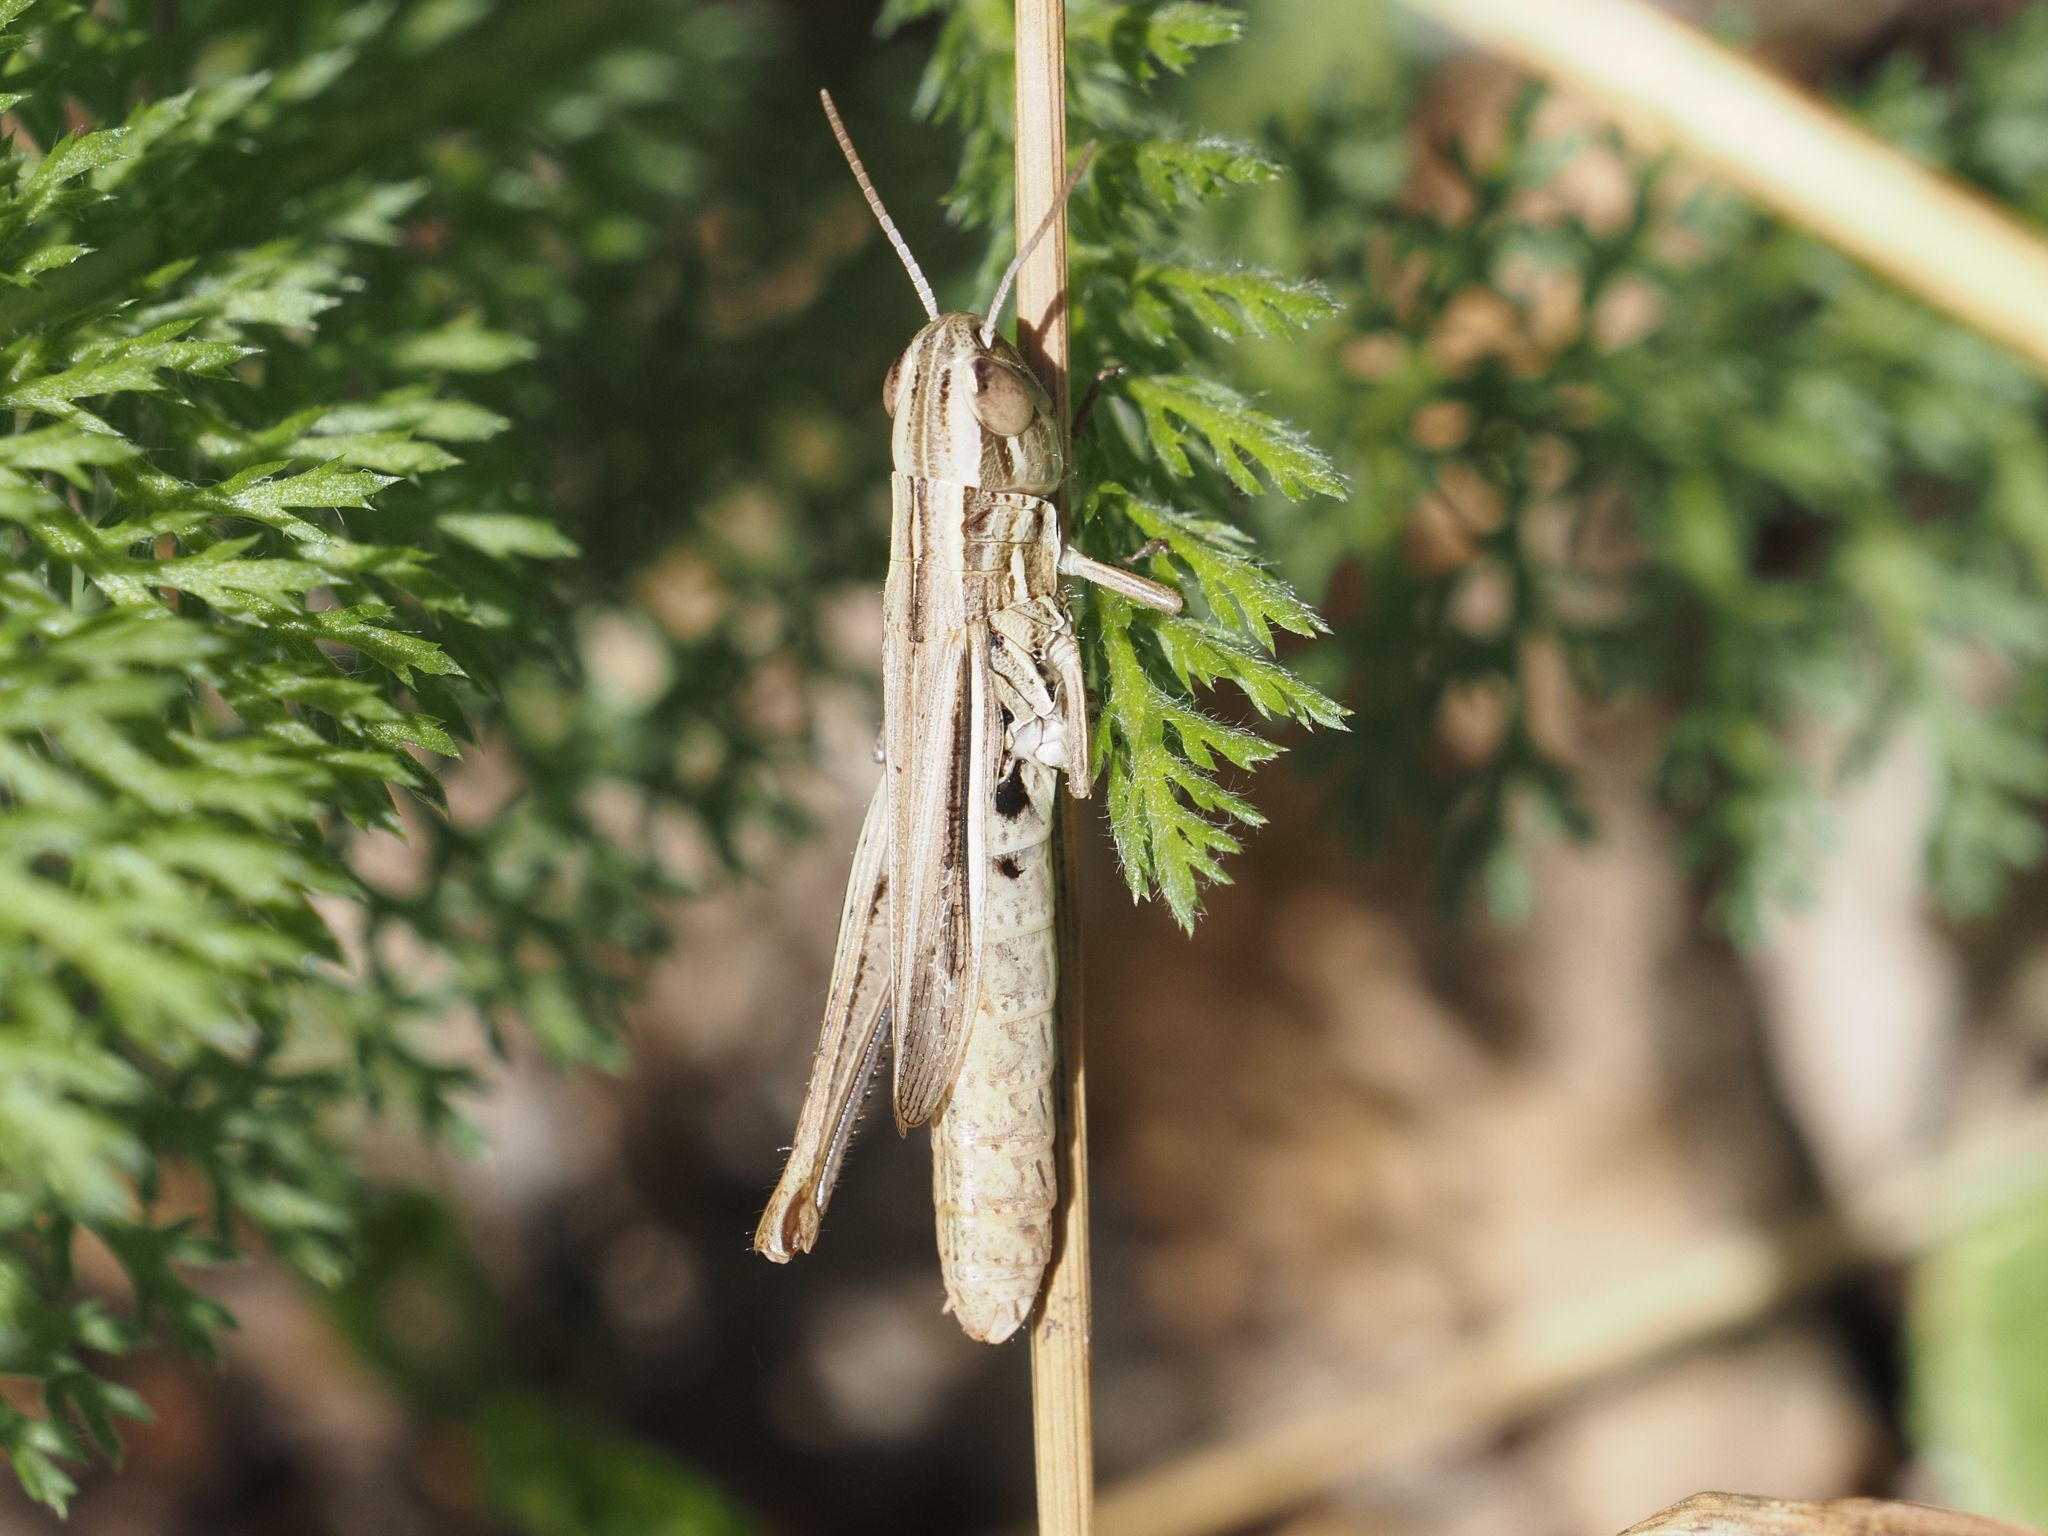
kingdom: Animalia
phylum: Arthropoda
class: Insecta
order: Orthoptera
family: Acrididae
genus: Euchorthippus
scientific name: Euchorthippus declivus
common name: Common straw grasshopper
